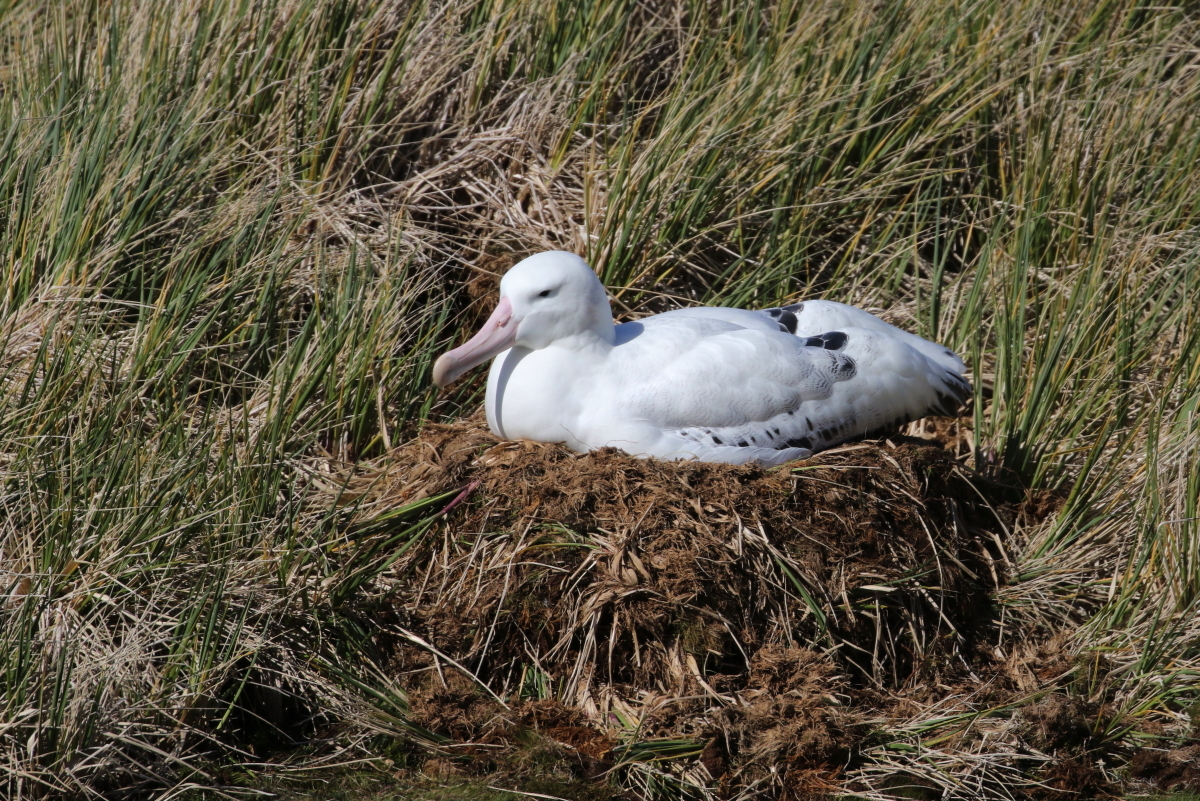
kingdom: Animalia
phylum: Chordata
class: Aves
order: Procellariiformes
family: Diomedeidae
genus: Diomedea
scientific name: Diomedea exulans
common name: Wandering albatross
